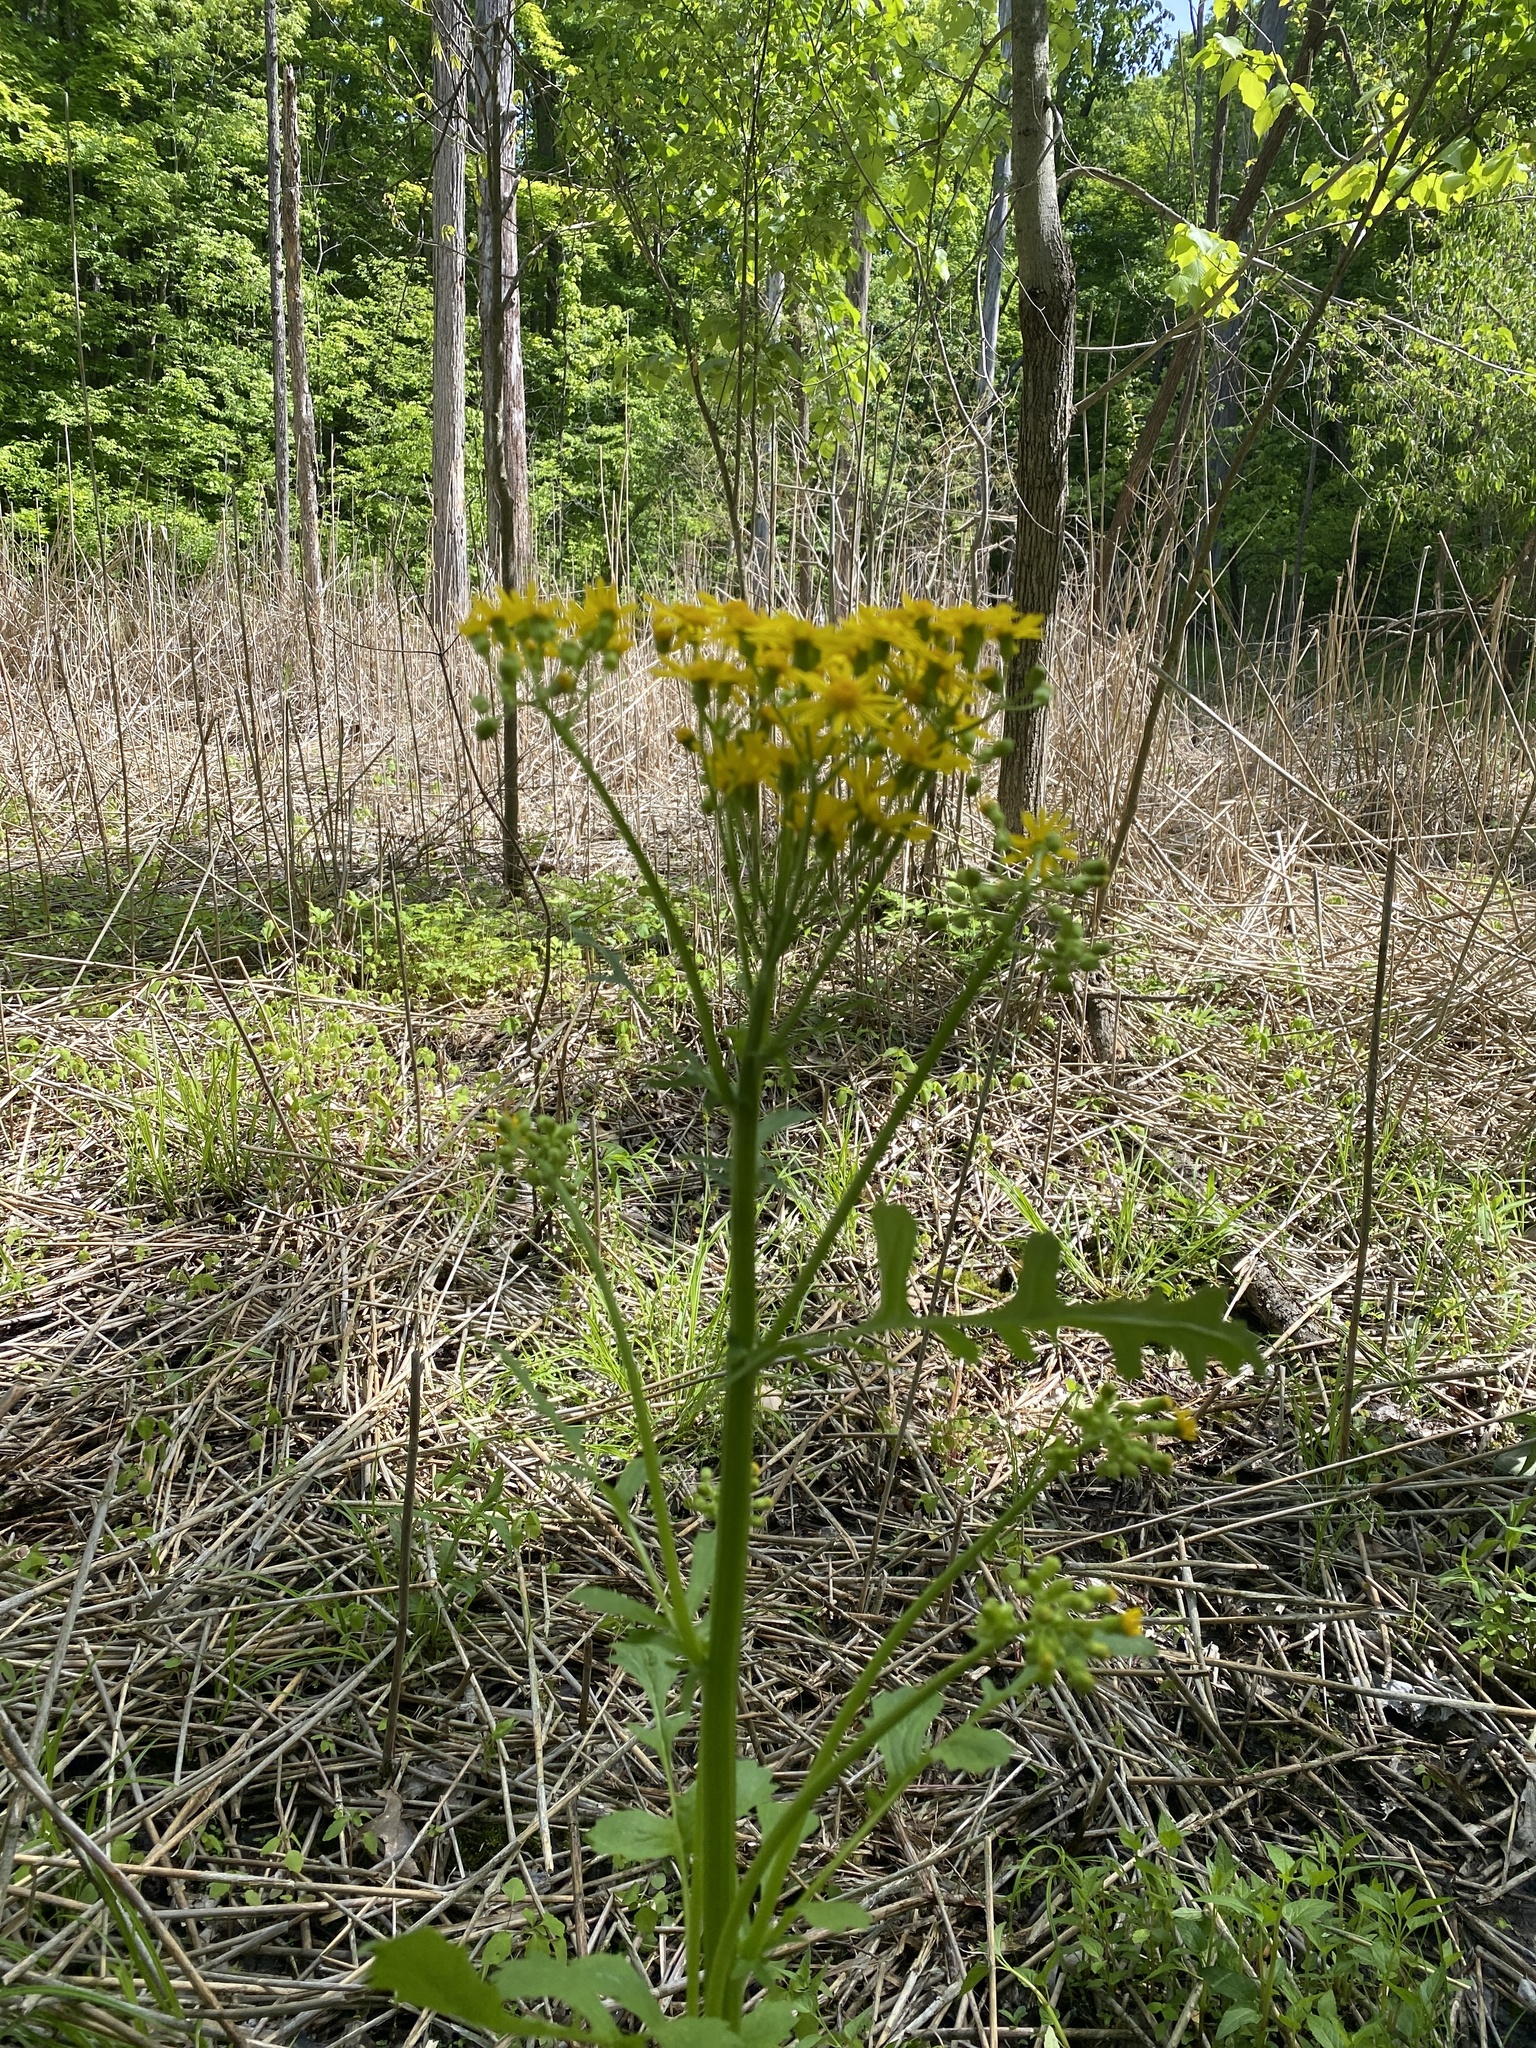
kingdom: Plantae
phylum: Tracheophyta
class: Magnoliopsida
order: Asterales
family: Asteraceae
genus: Packera
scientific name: Packera glabella
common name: Butterweed
